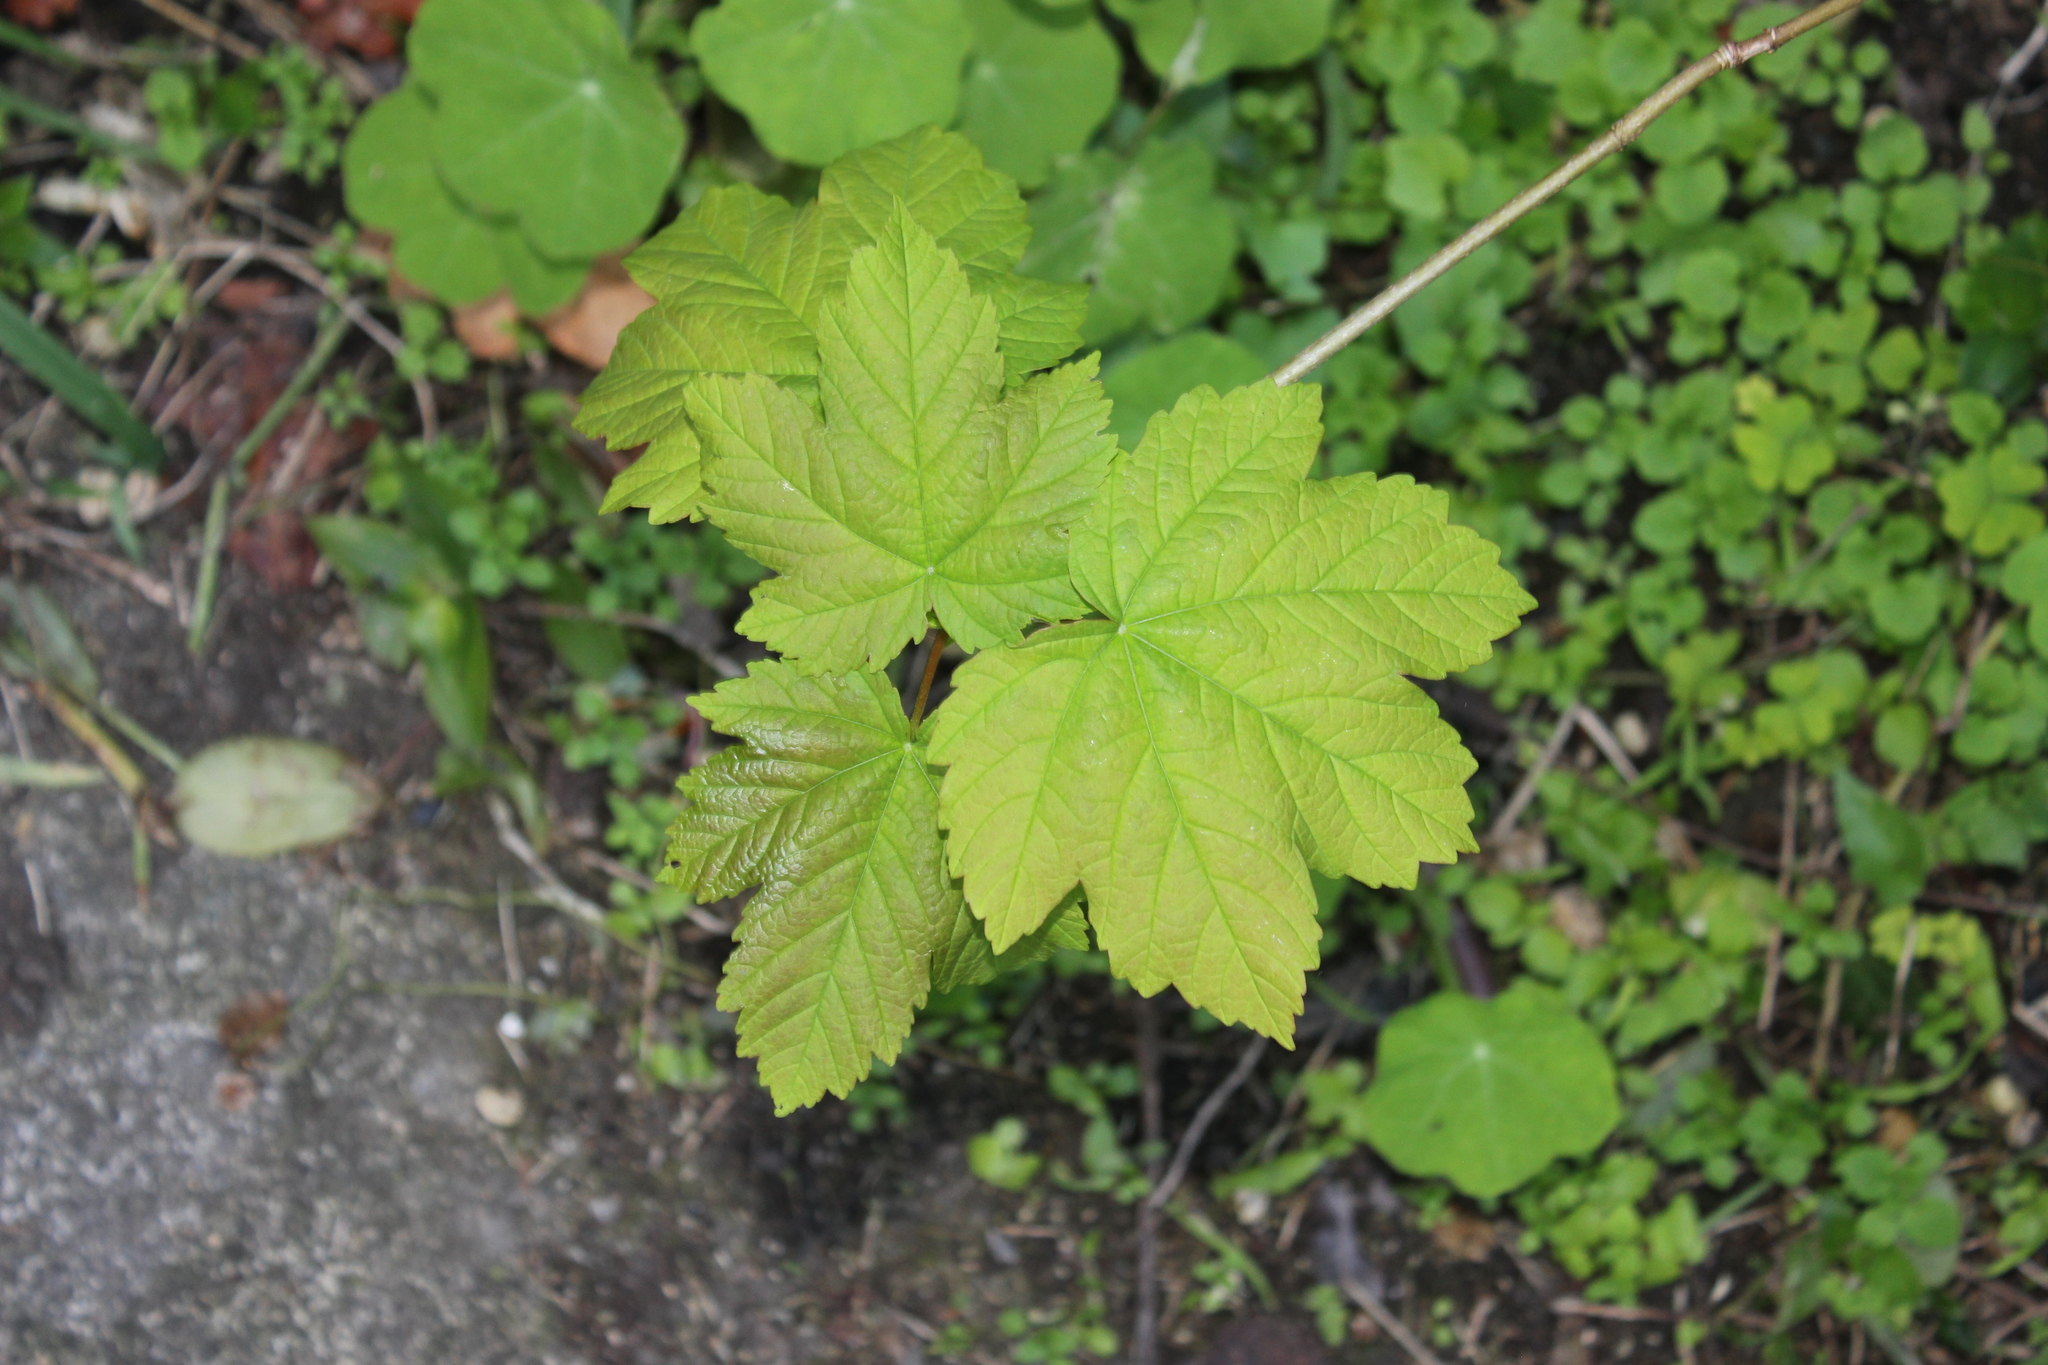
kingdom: Plantae
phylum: Tracheophyta
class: Magnoliopsida
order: Sapindales
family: Sapindaceae
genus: Acer
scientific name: Acer pseudoplatanus
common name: Sycamore
